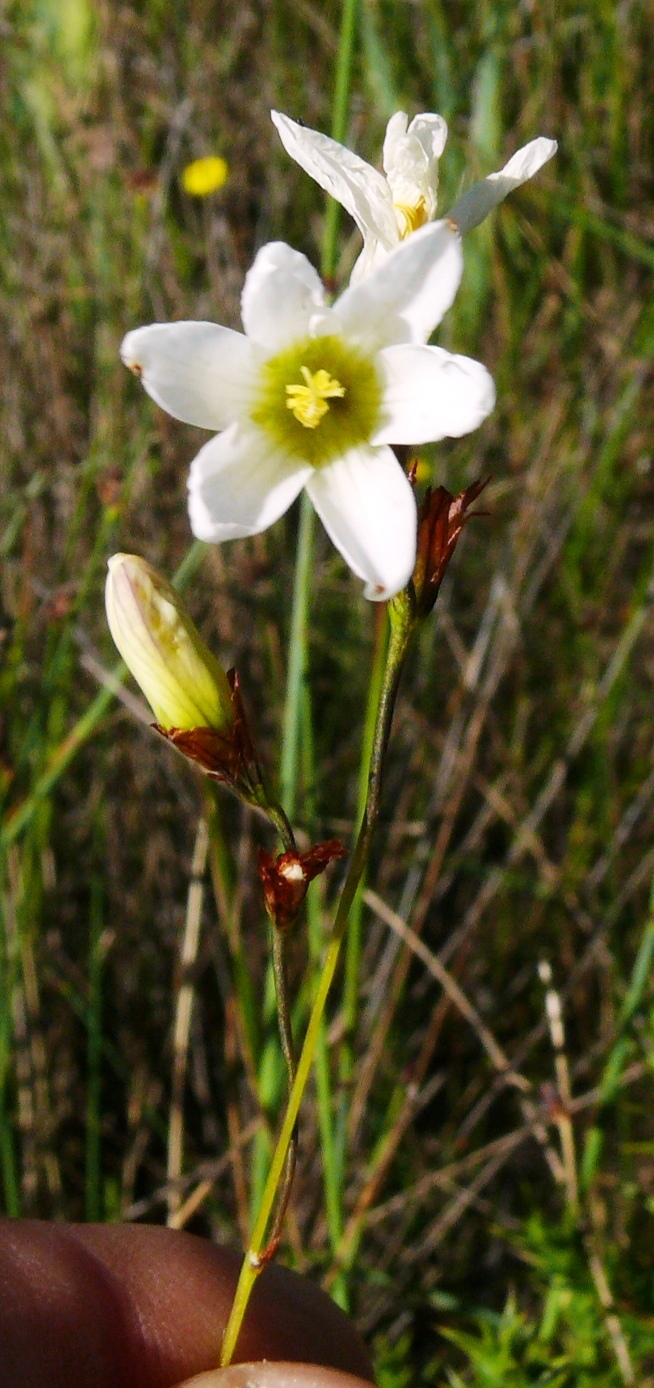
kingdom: Plantae
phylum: Tracheophyta
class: Liliopsida
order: Asparagales
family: Iridaceae
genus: Ixia
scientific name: Ixia brunneobractea
